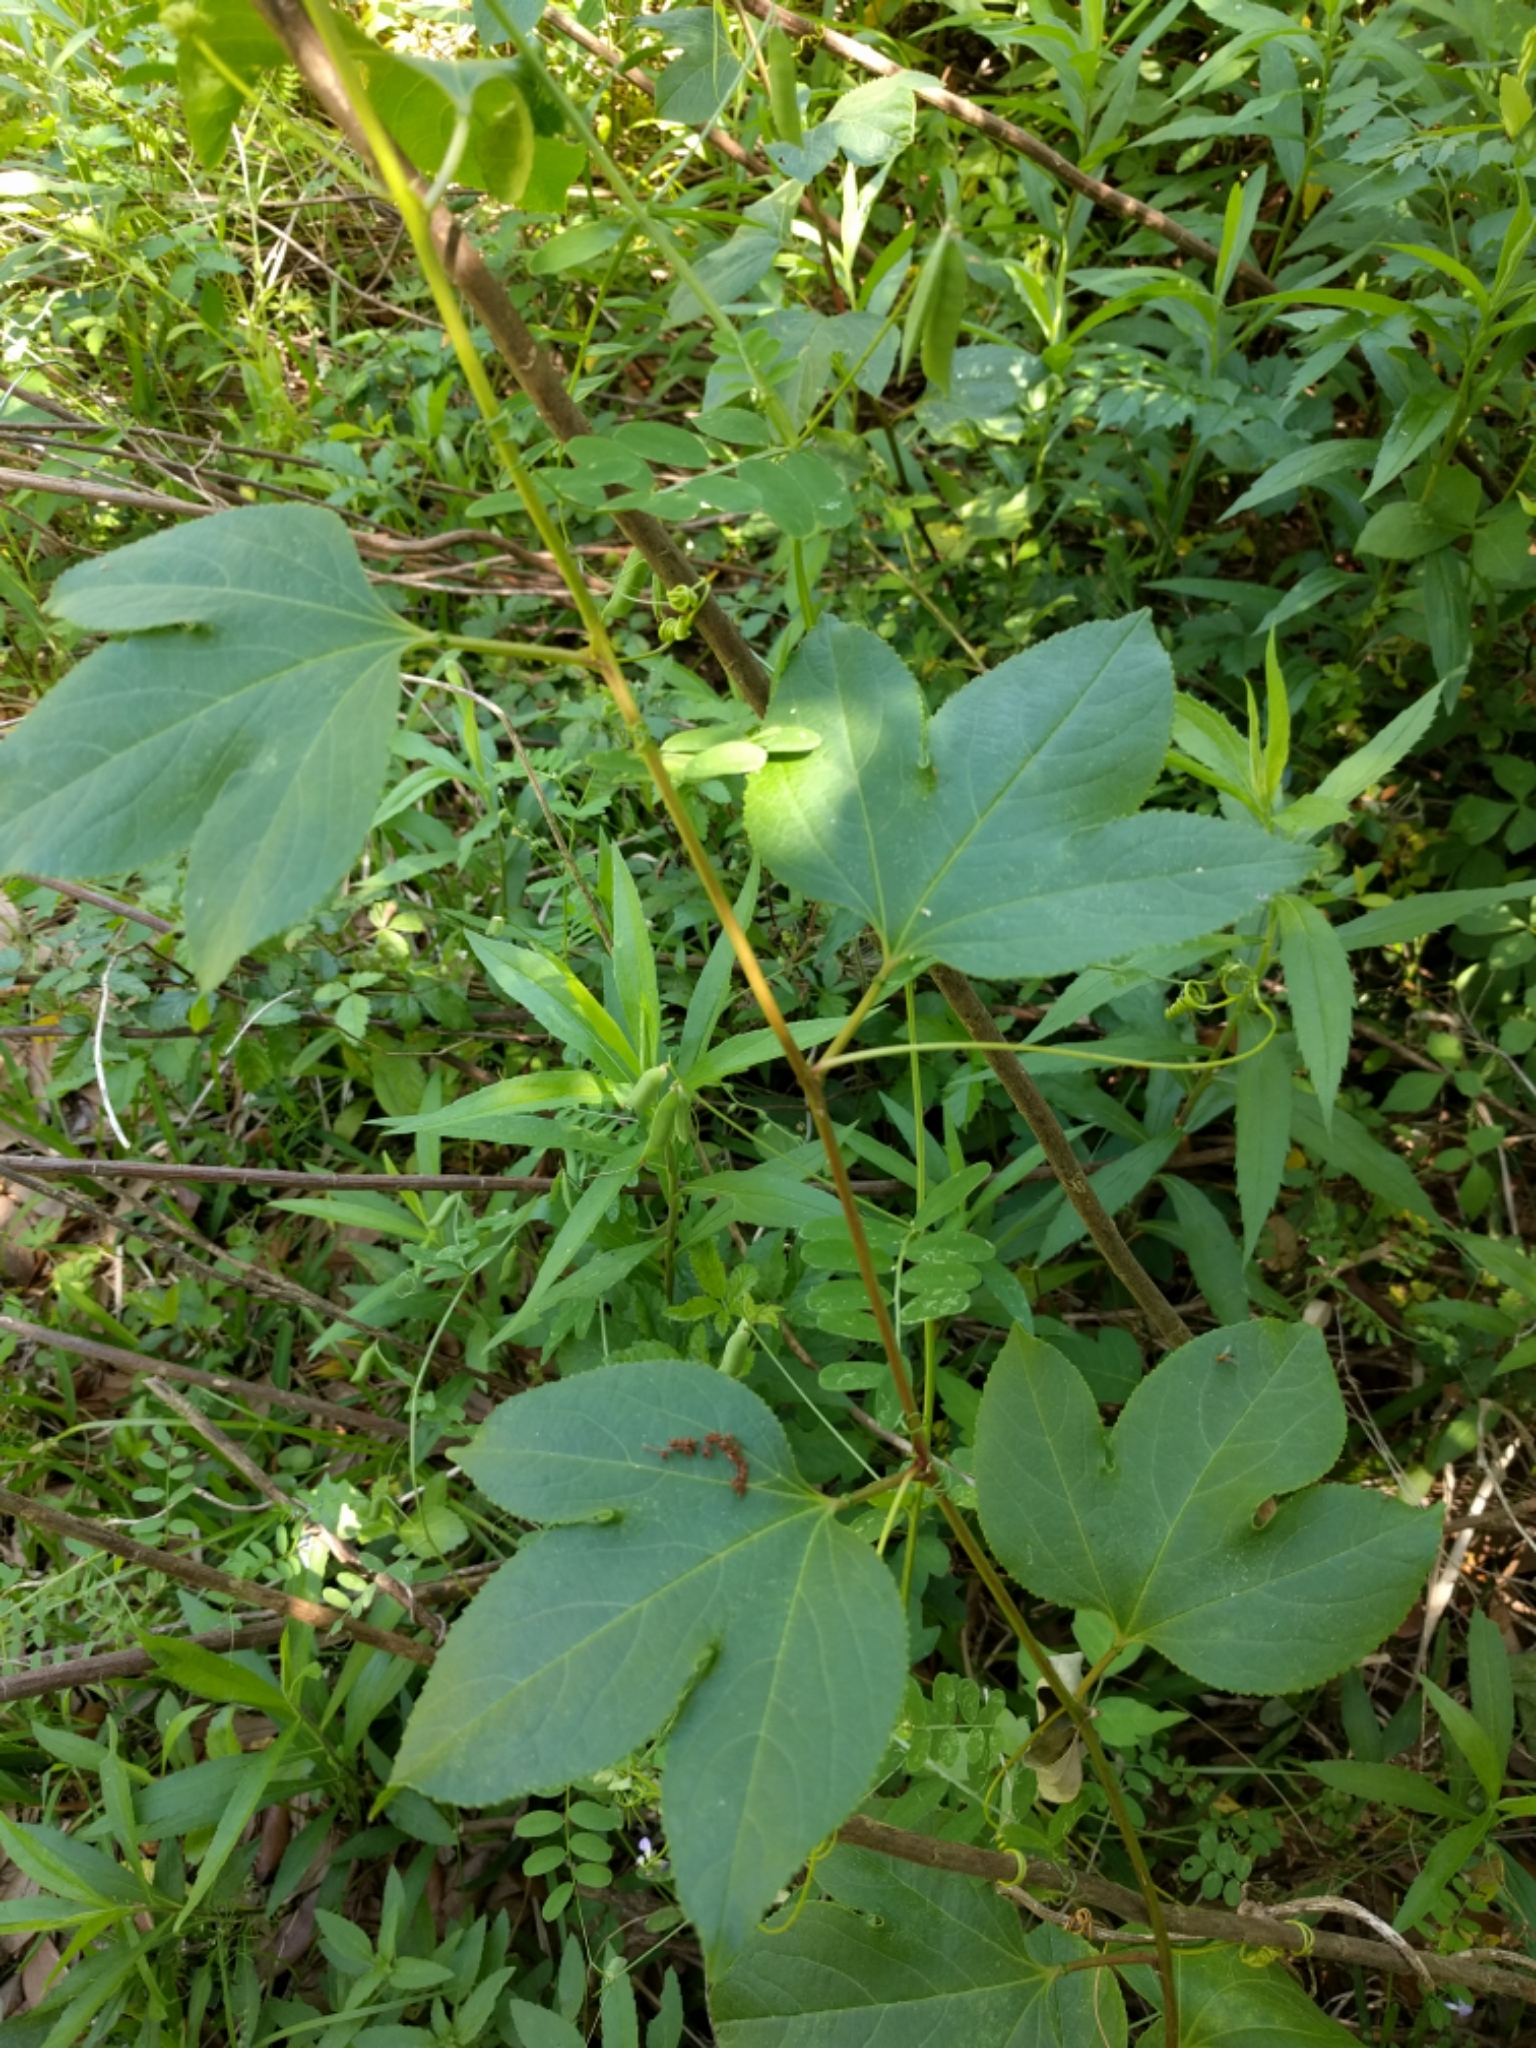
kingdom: Plantae
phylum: Tracheophyta
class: Magnoliopsida
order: Malpighiales
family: Passifloraceae
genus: Passiflora
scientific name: Passiflora incarnata
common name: Apricot-vine
